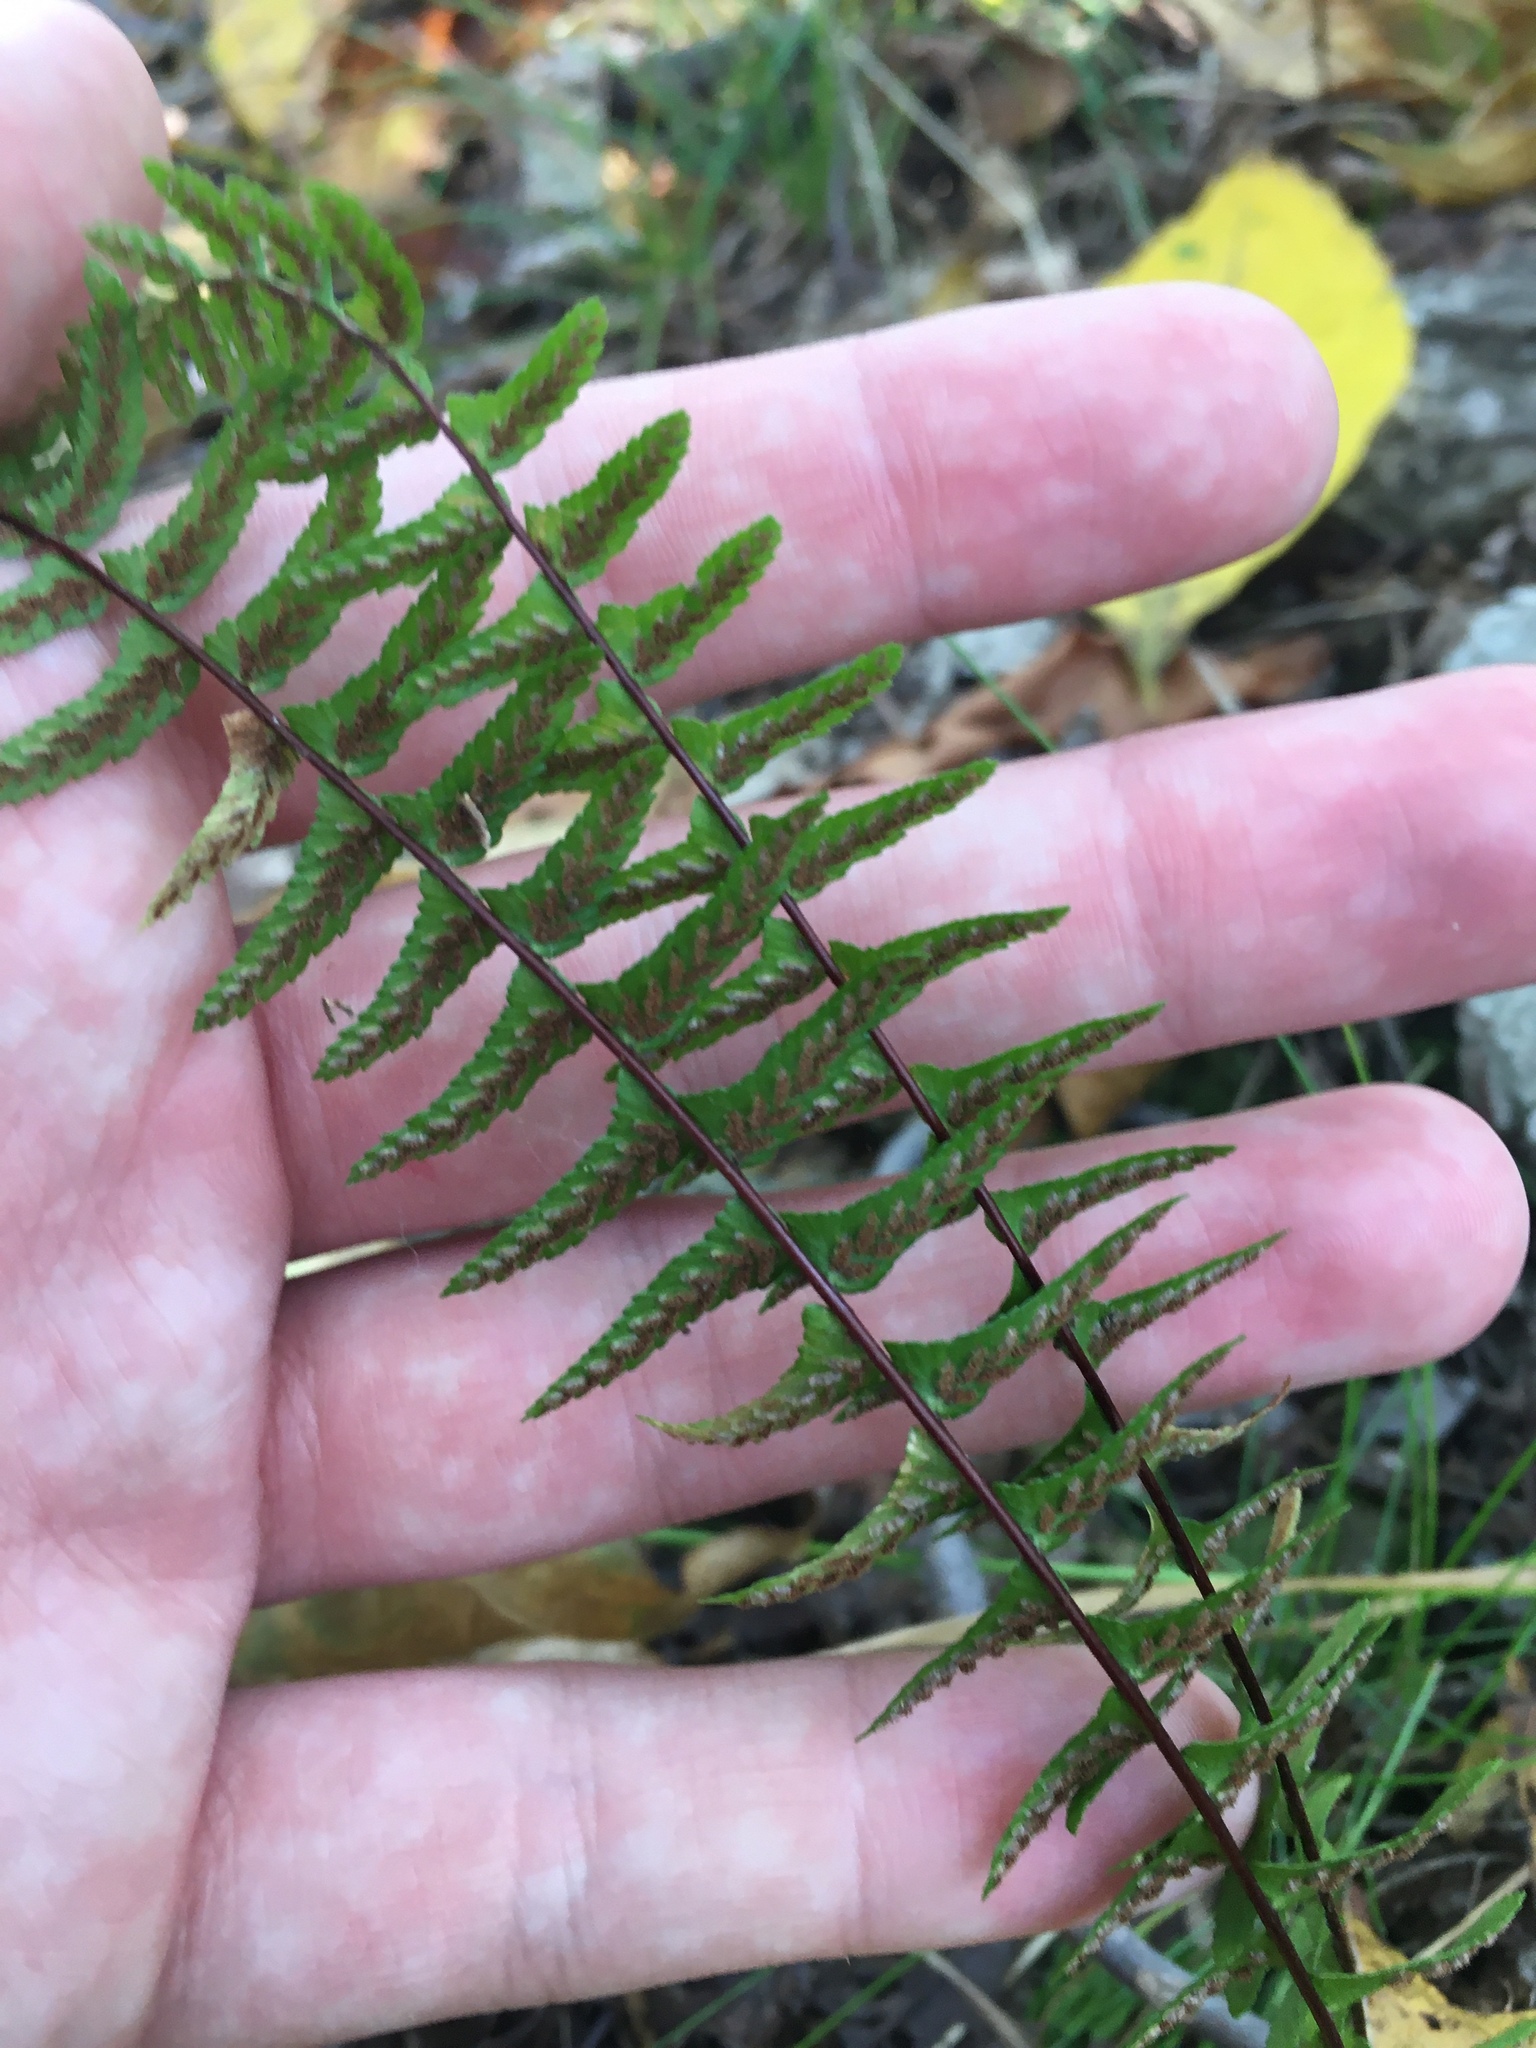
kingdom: Plantae
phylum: Tracheophyta
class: Polypodiopsida
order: Polypodiales
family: Aspleniaceae
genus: Asplenium
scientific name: Asplenium platyneuron
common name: Ebony spleenwort
